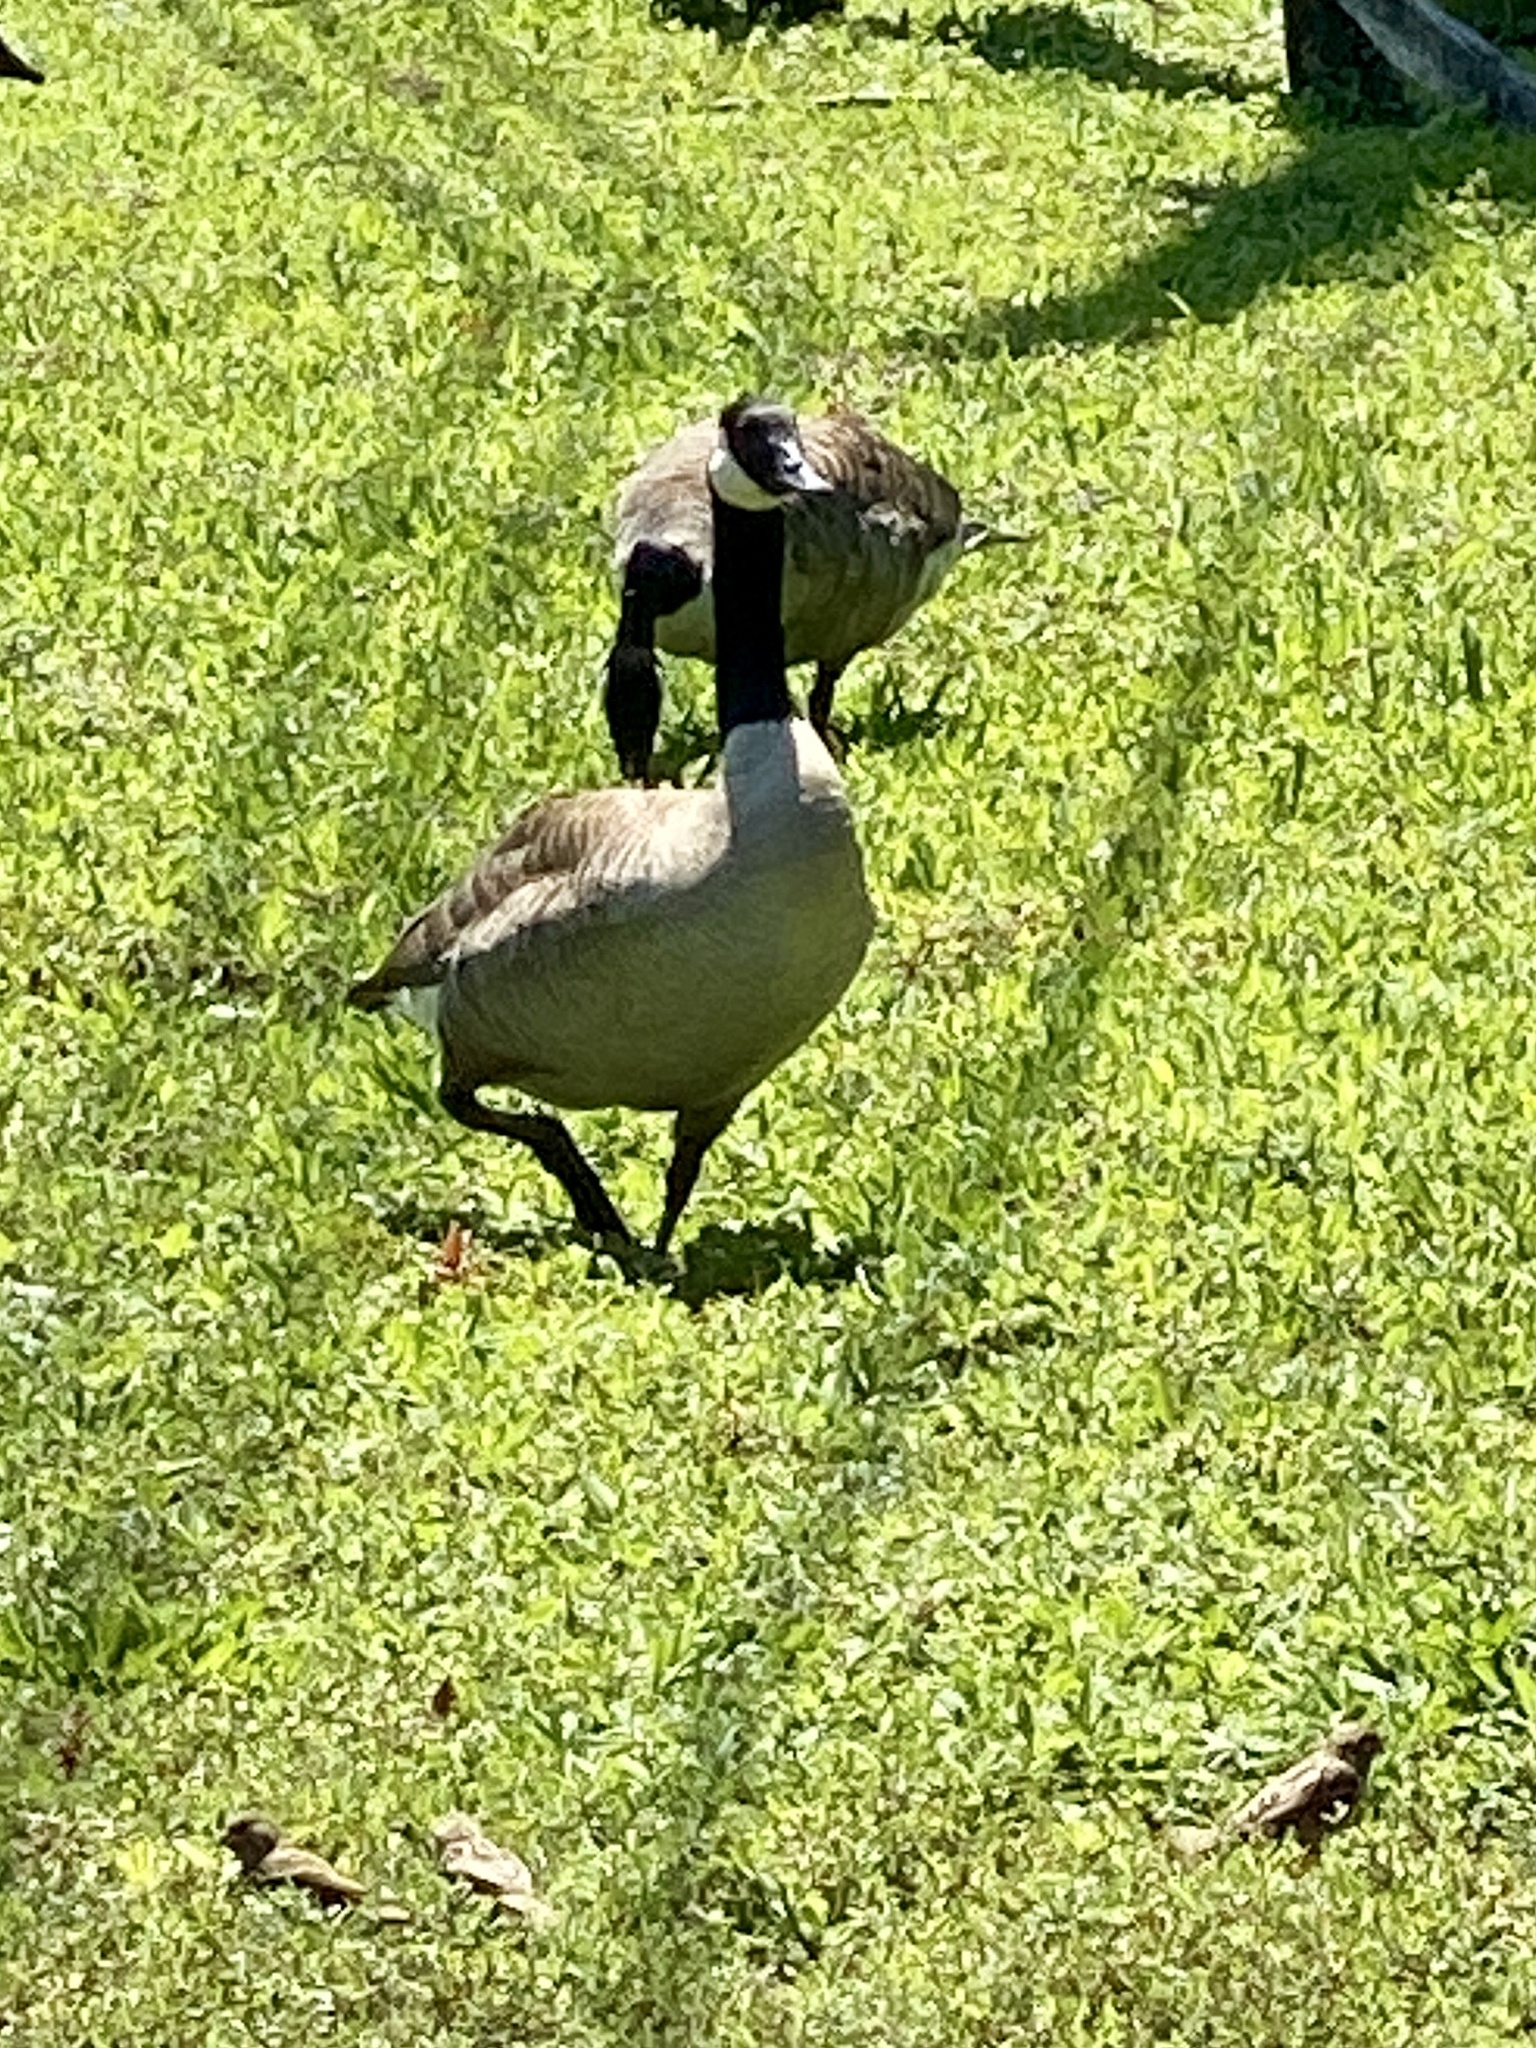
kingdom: Animalia
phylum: Chordata
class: Aves
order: Anseriformes
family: Anatidae
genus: Branta
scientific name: Branta canadensis
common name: Canada goose
